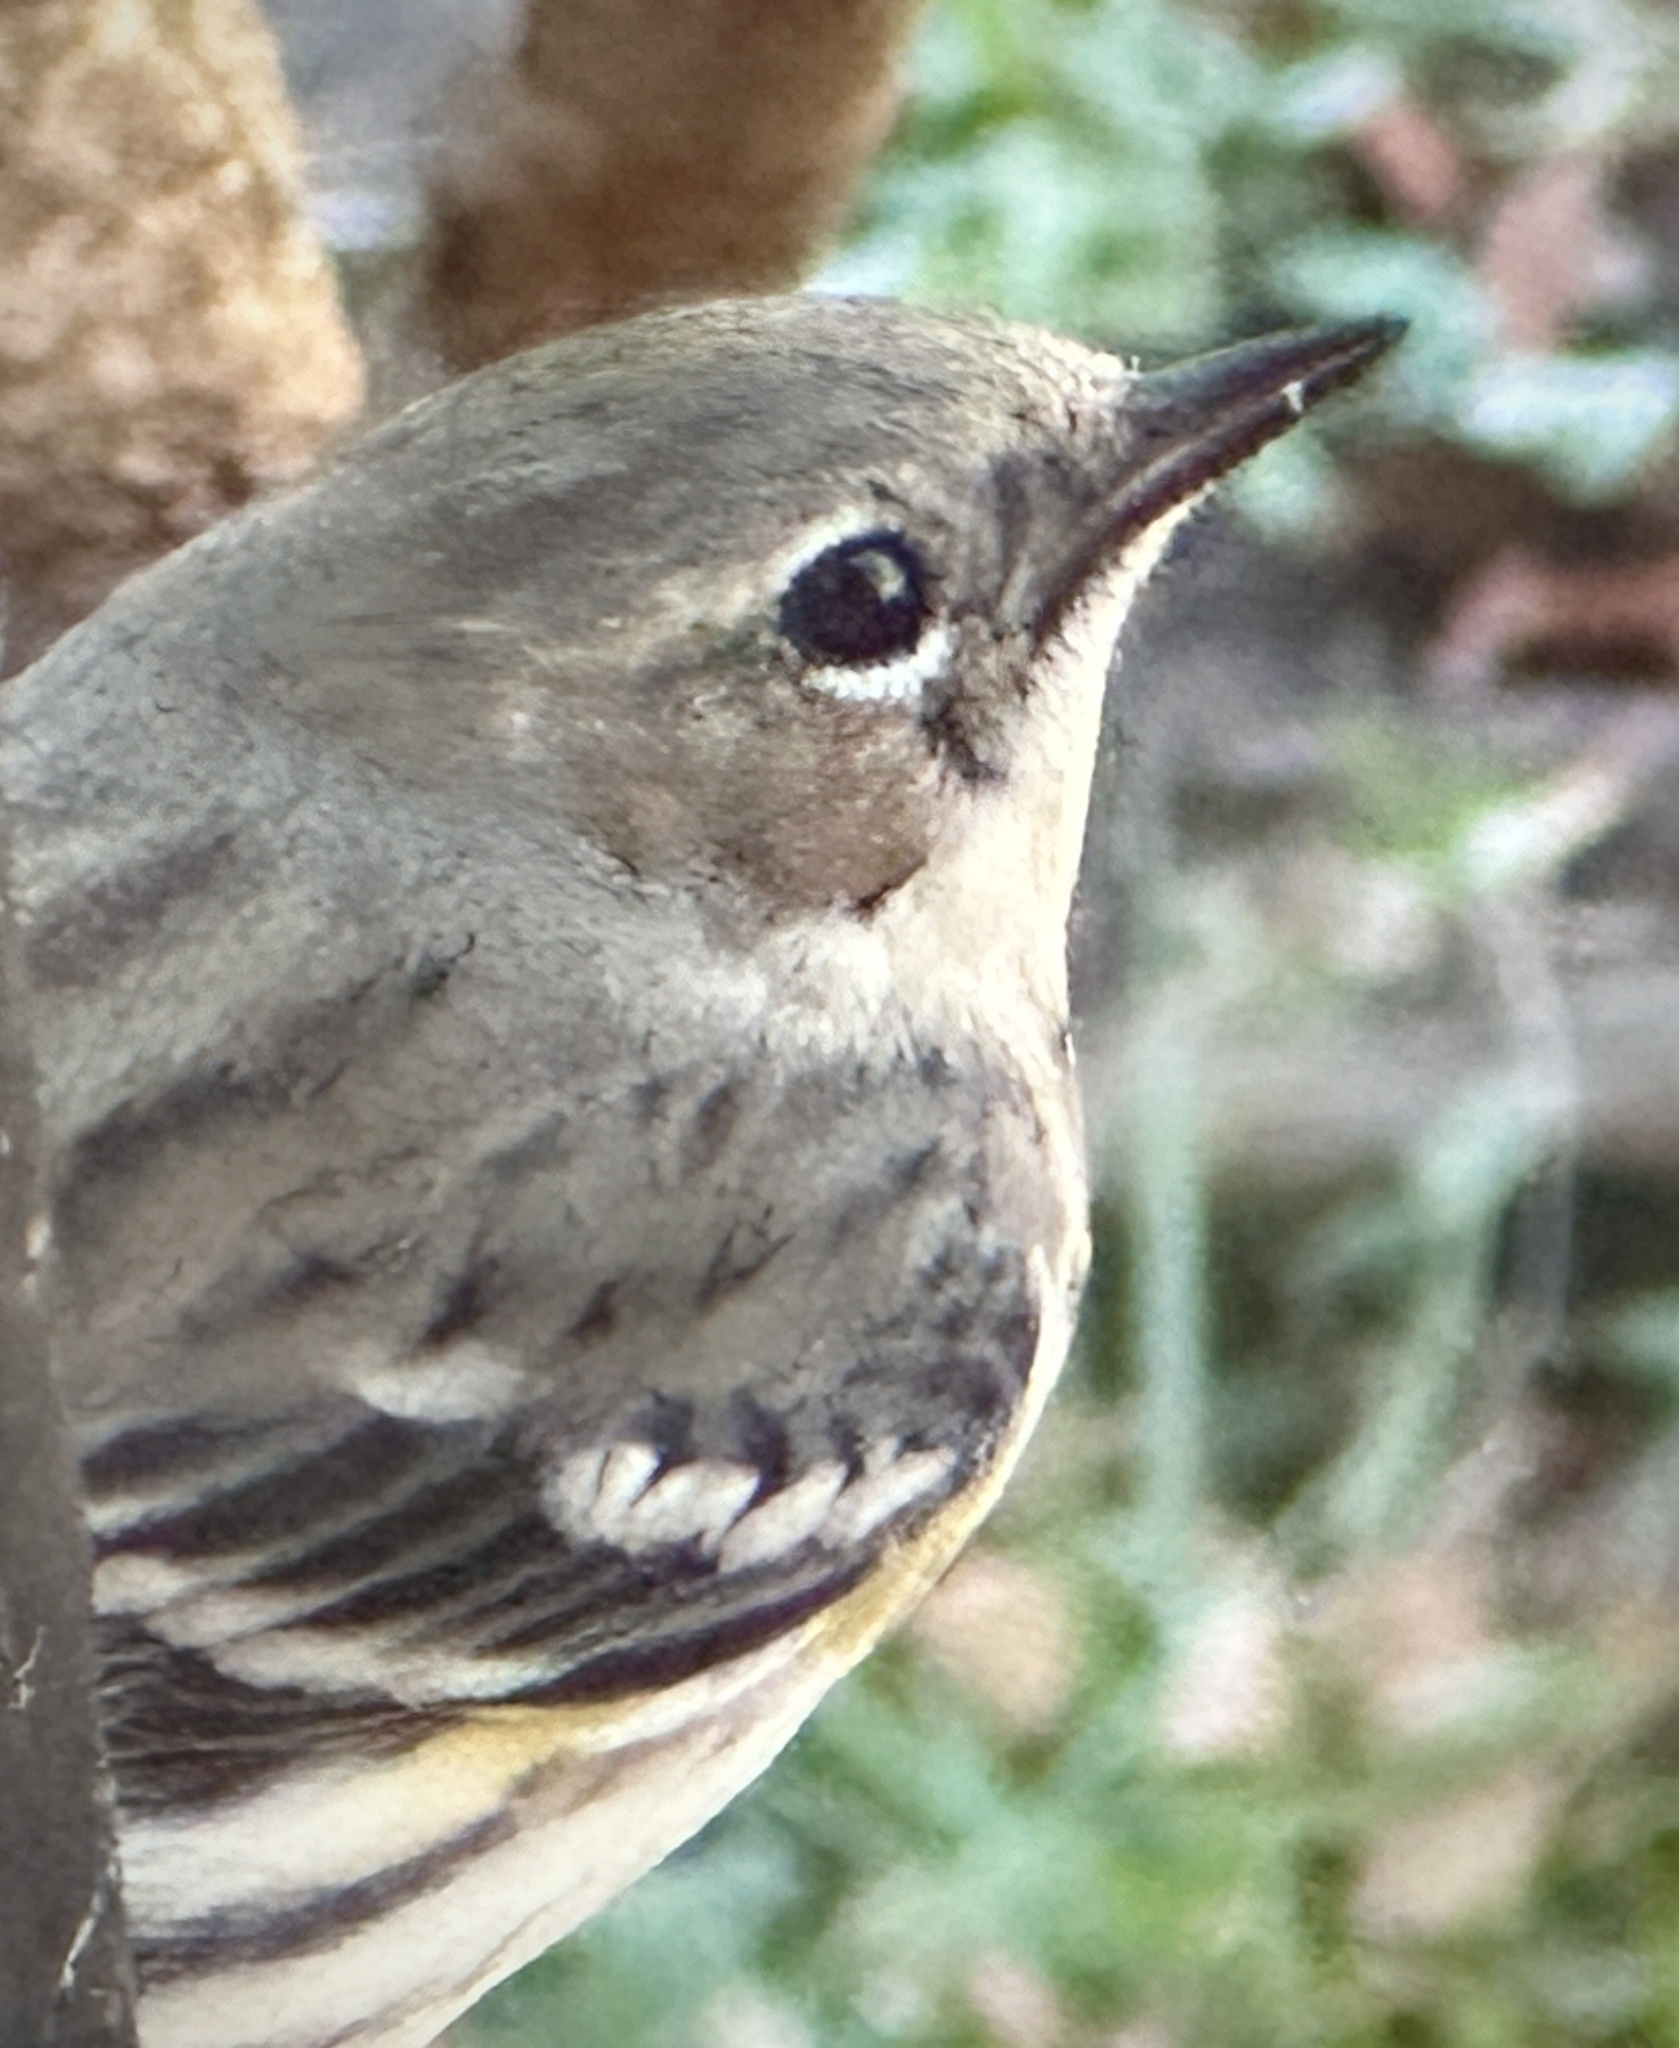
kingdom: Animalia
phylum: Chordata
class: Aves
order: Passeriformes
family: Parulidae
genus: Setophaga
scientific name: Setophaga coronata
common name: Myrtle warbler
